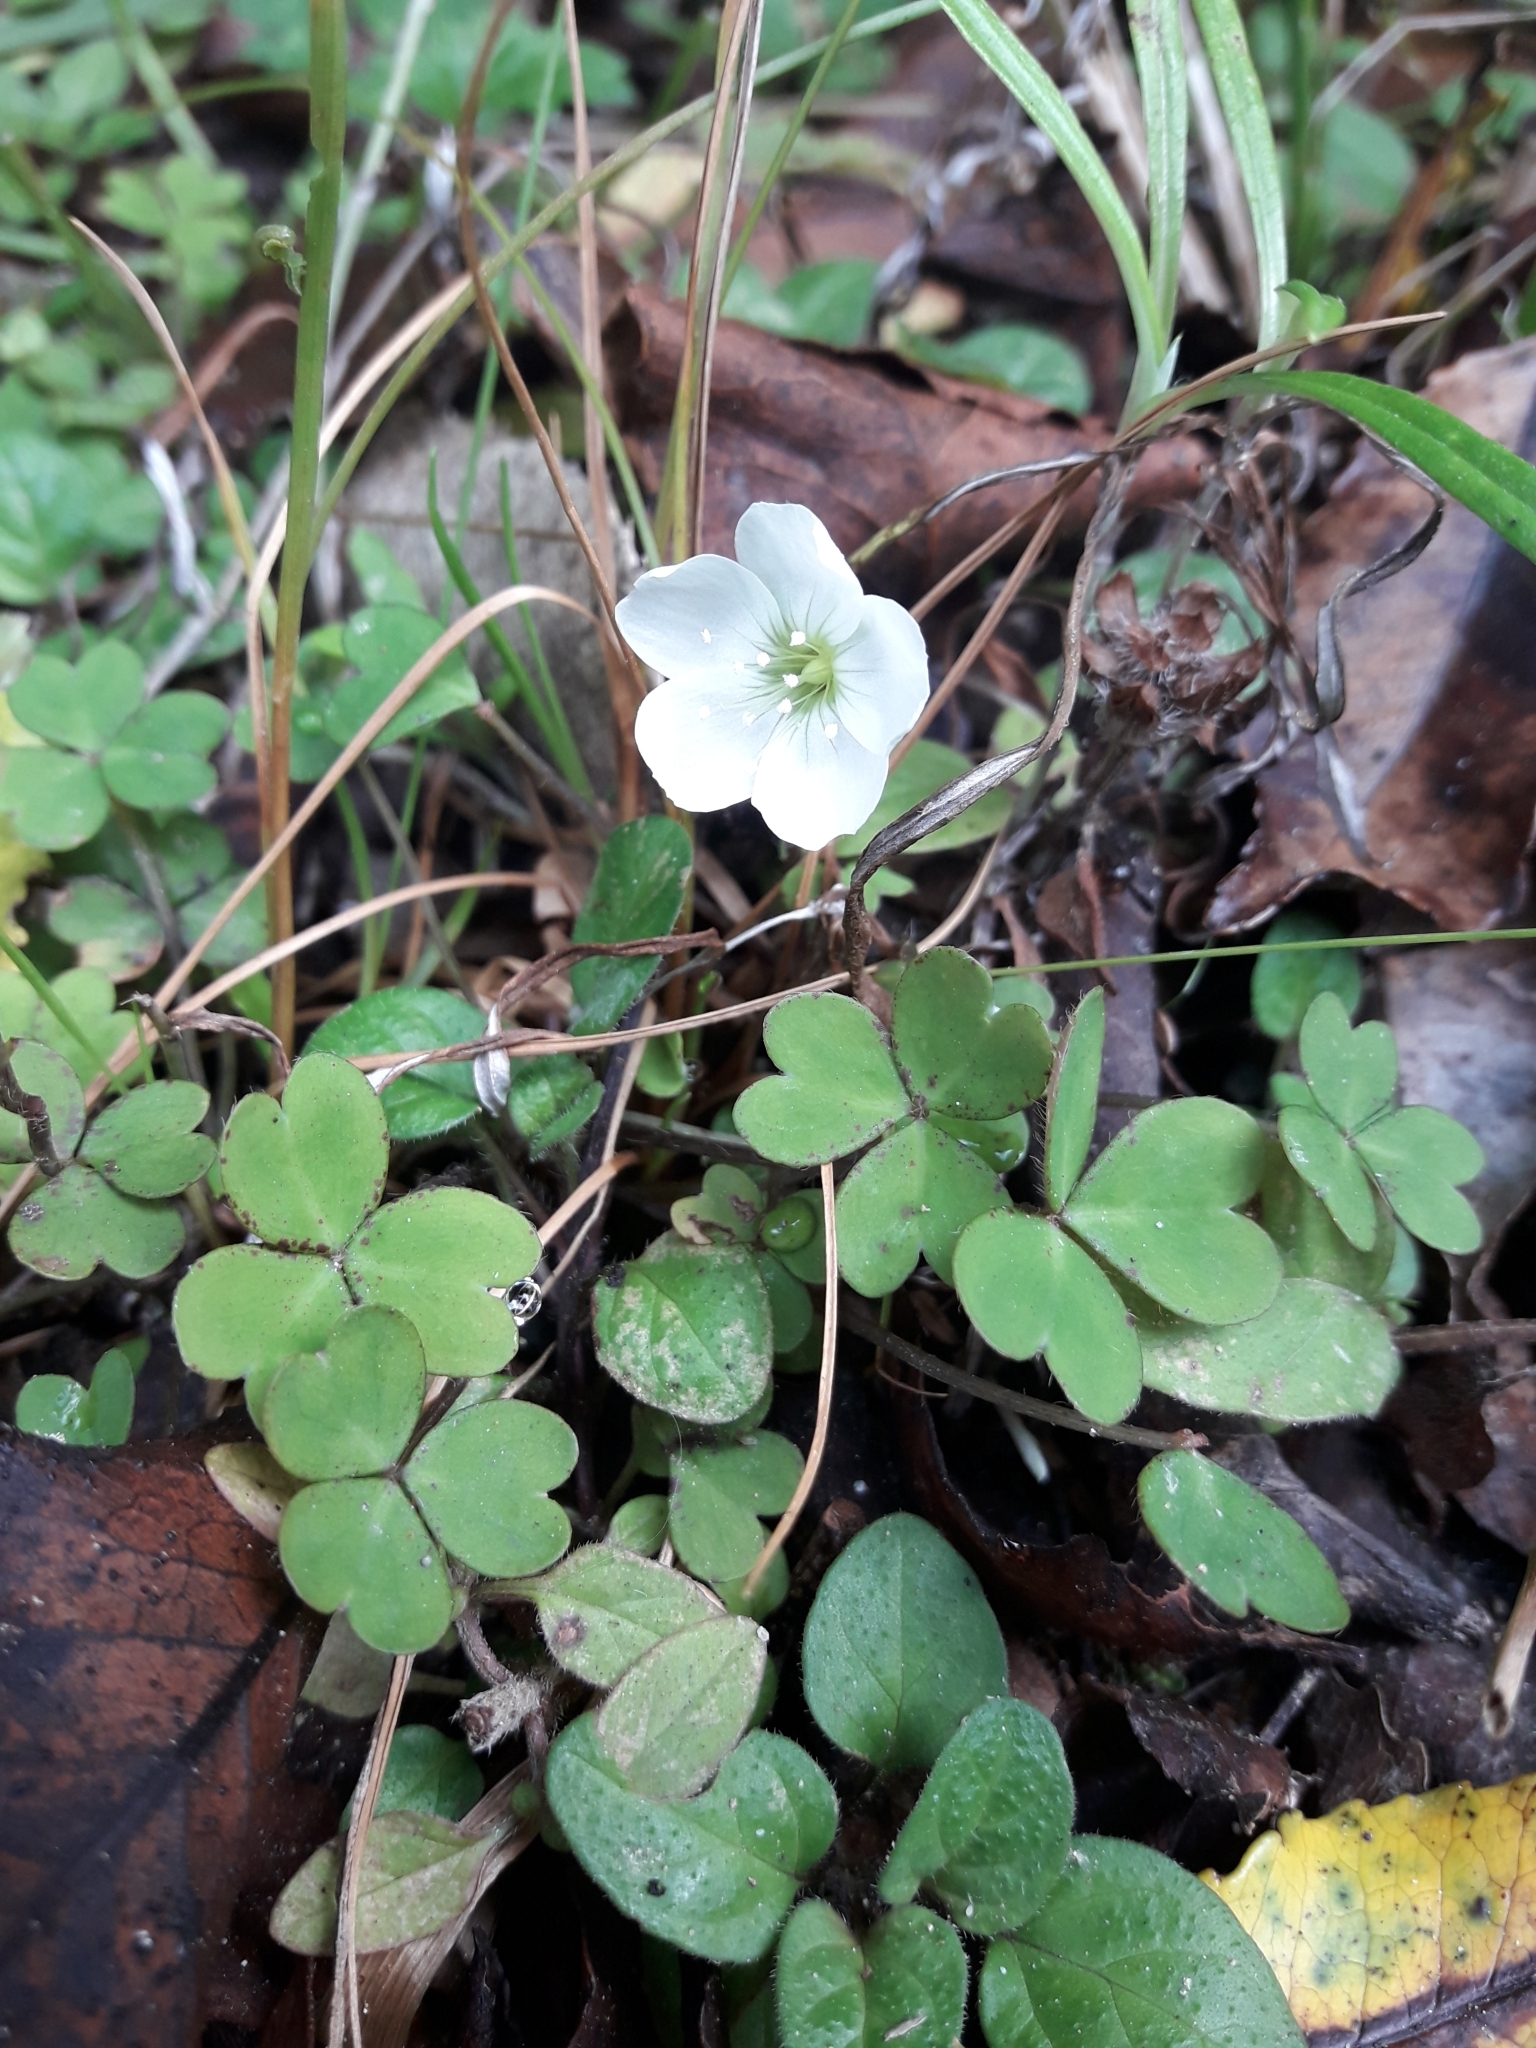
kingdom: Plantae
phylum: Tracheophyta
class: Magnoliopsida
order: Oxalidales
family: Oxalidaceae
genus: Oxalis
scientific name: Oxalis magellanica
